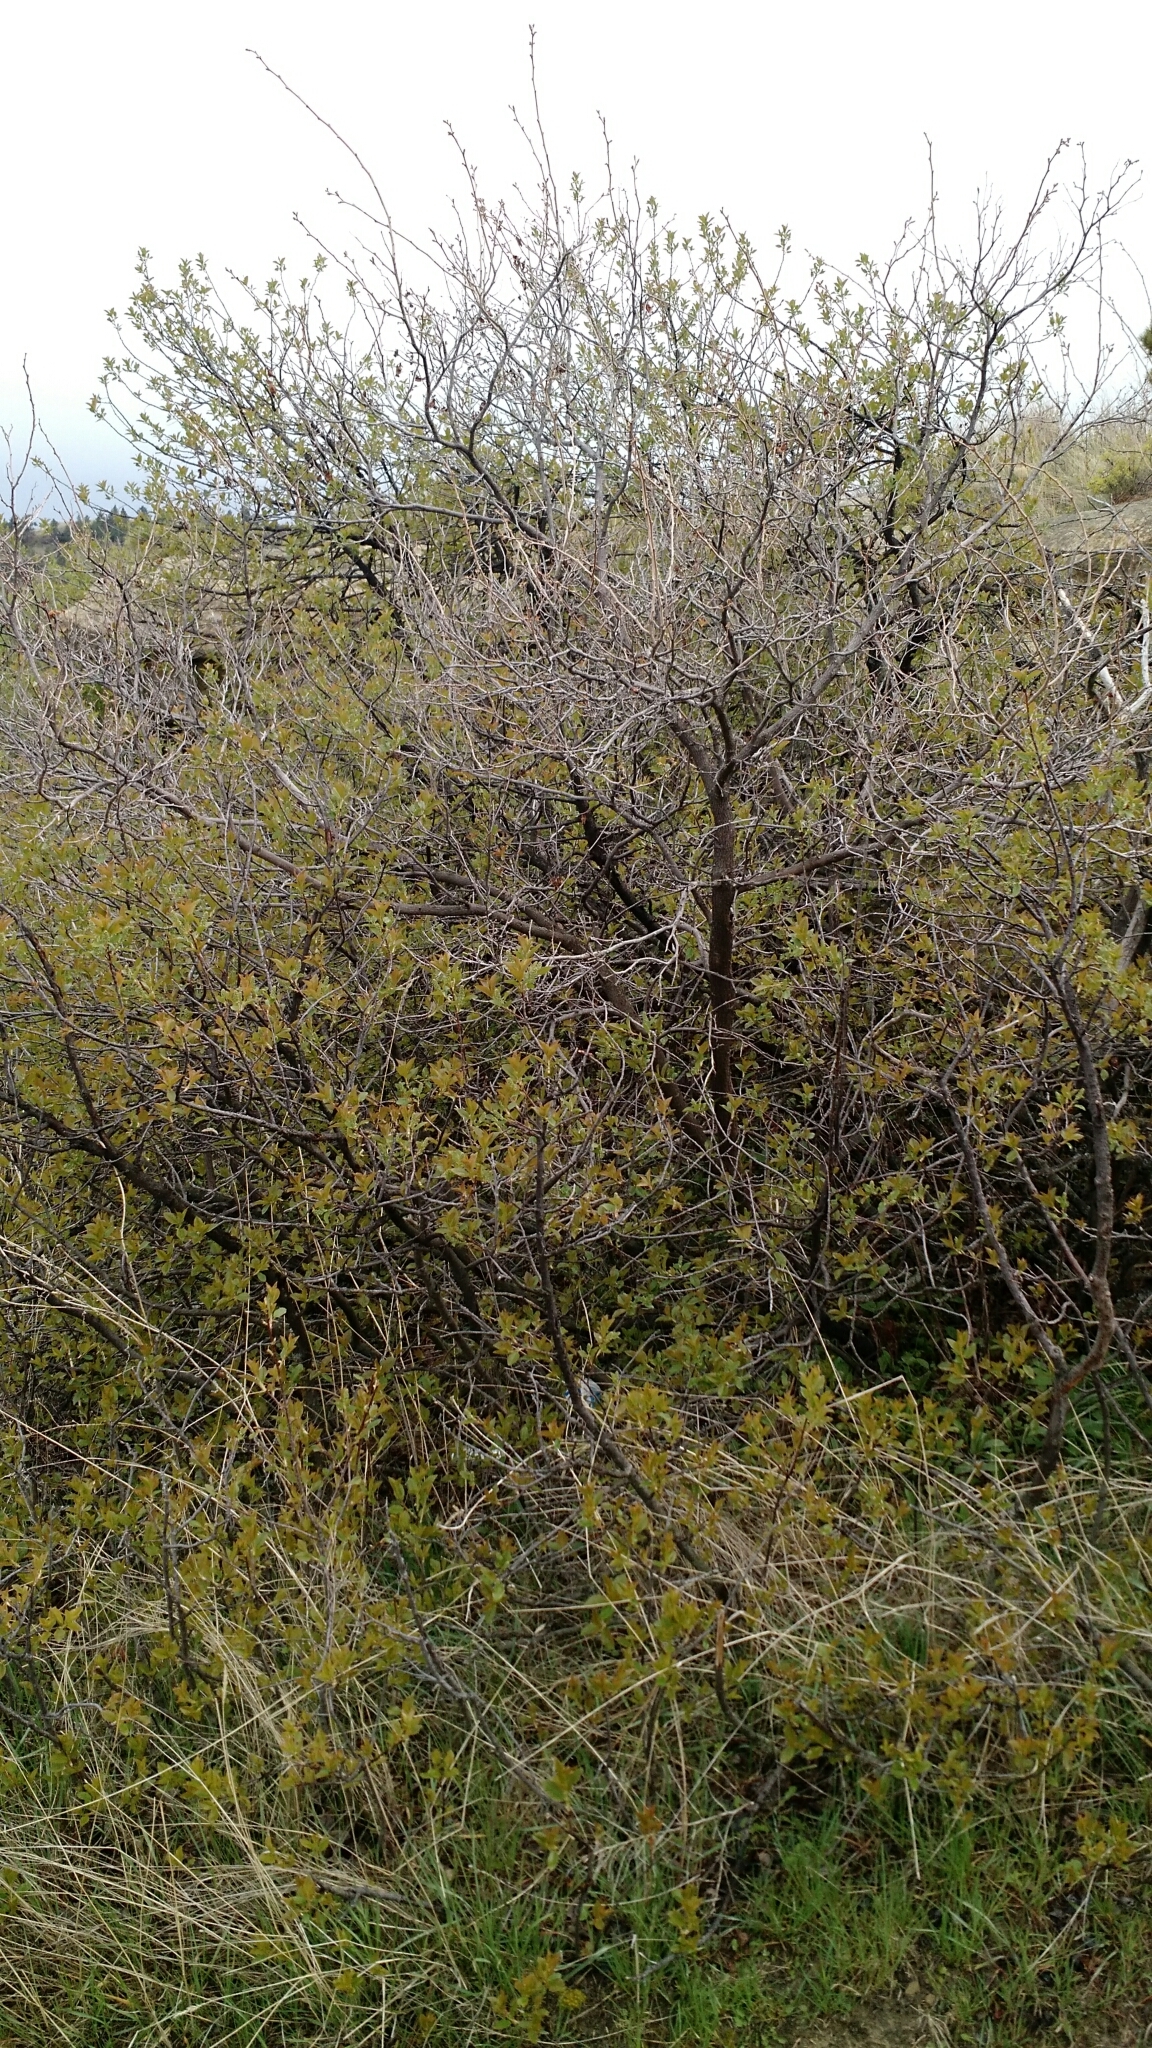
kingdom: Plantae
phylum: Tracheophyta
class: Magnoliopsida
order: Rosales
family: Rosaceae
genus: Prunus
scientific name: Prunus virginiana
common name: Chokecherry
